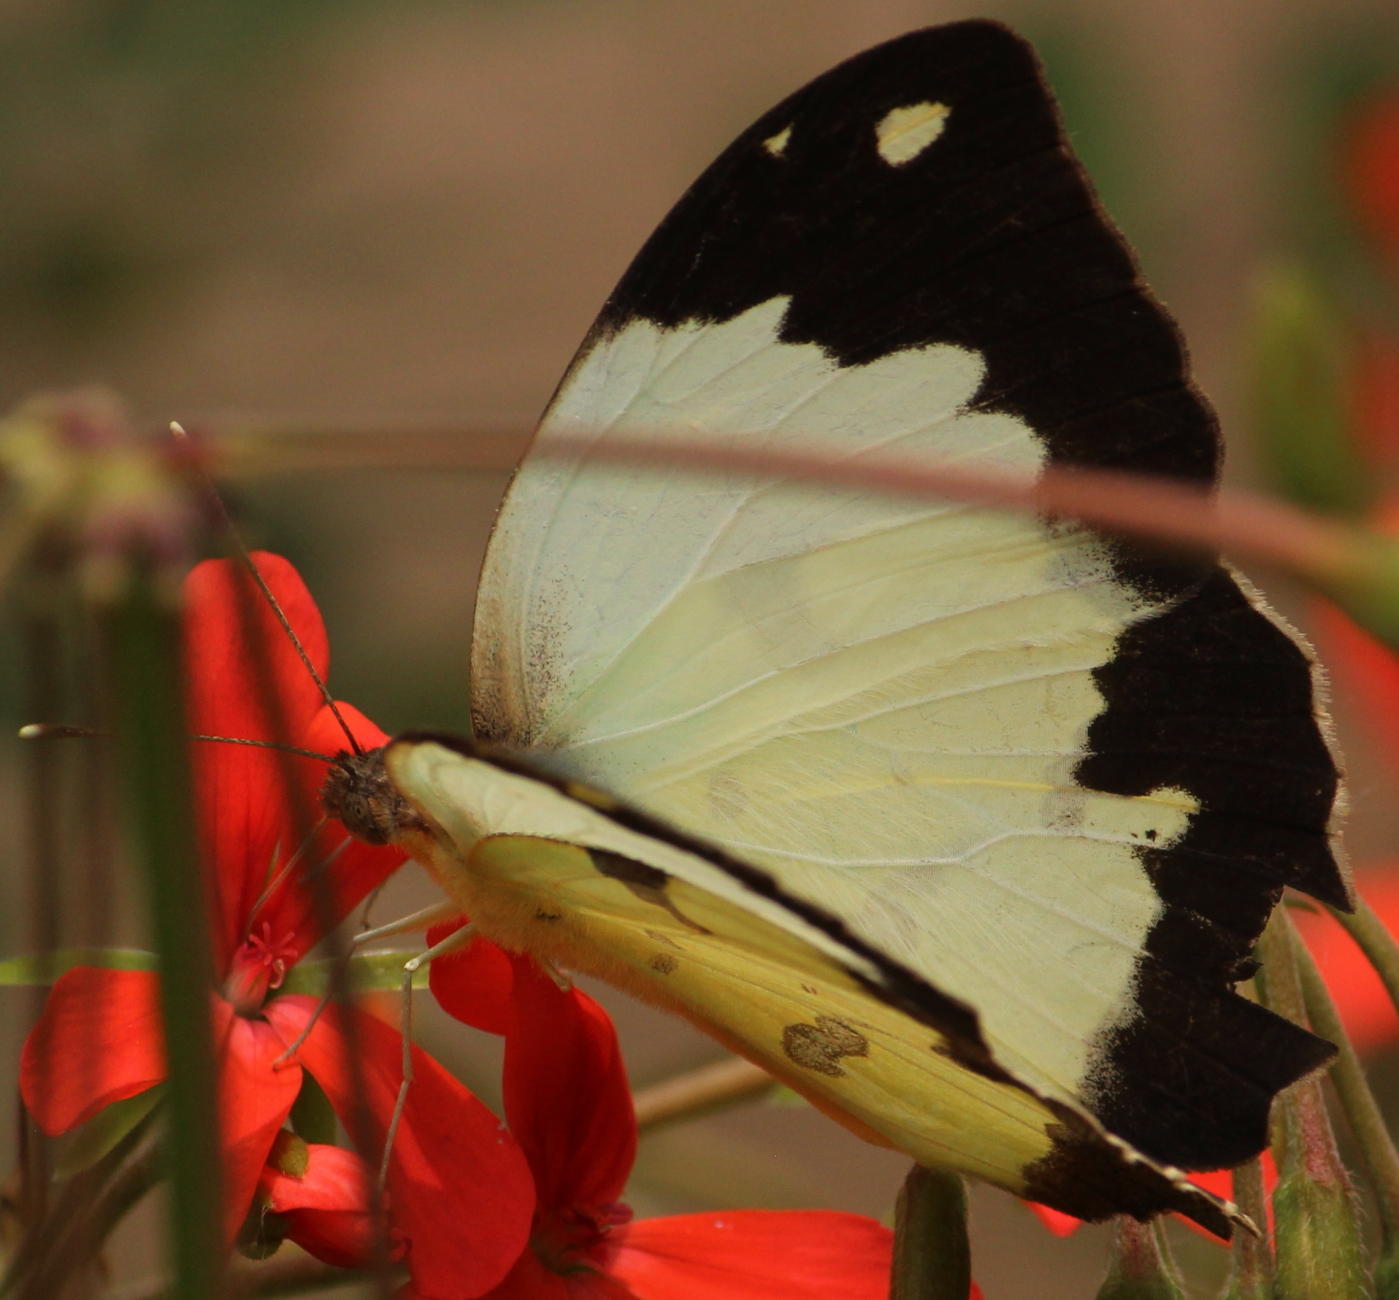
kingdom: Animalia
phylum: Arthropoda
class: Insecta
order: Lepidoptera
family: Pieridae
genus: Eronia
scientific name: Eronia cleodora
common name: Vine-leaf vagrant
